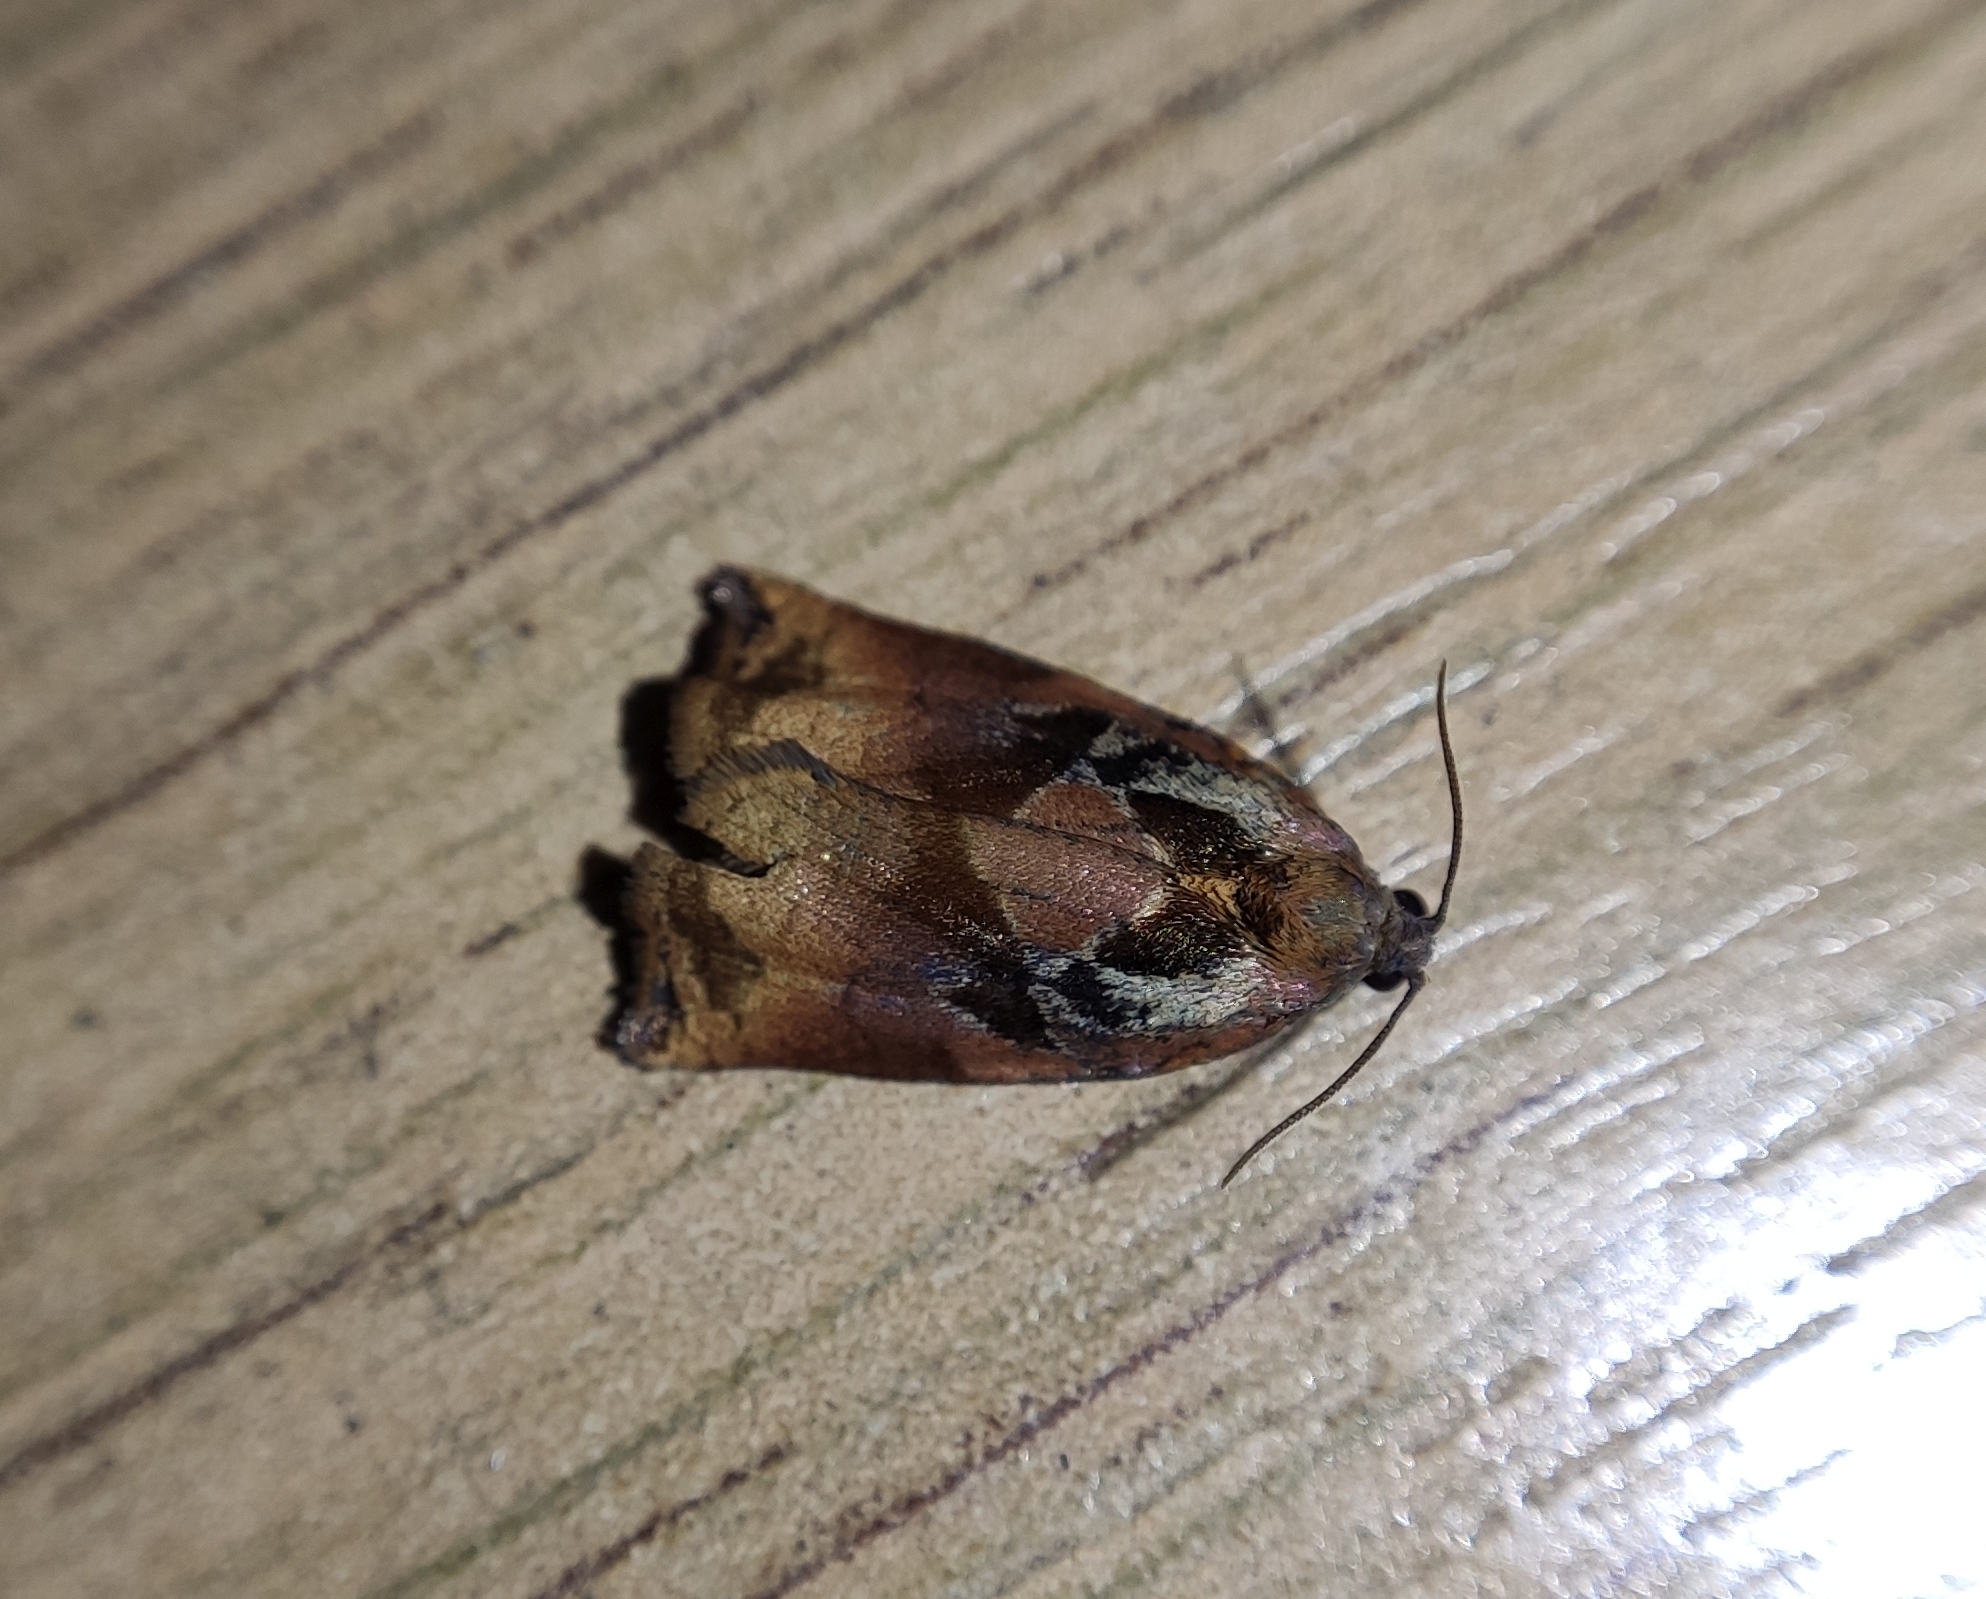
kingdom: Animalia
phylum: Arthropoda
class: Insecta
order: Lepidoptera
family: Tortricidae
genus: Archips
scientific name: Archips podana
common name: Large fruit-tree tortrix
